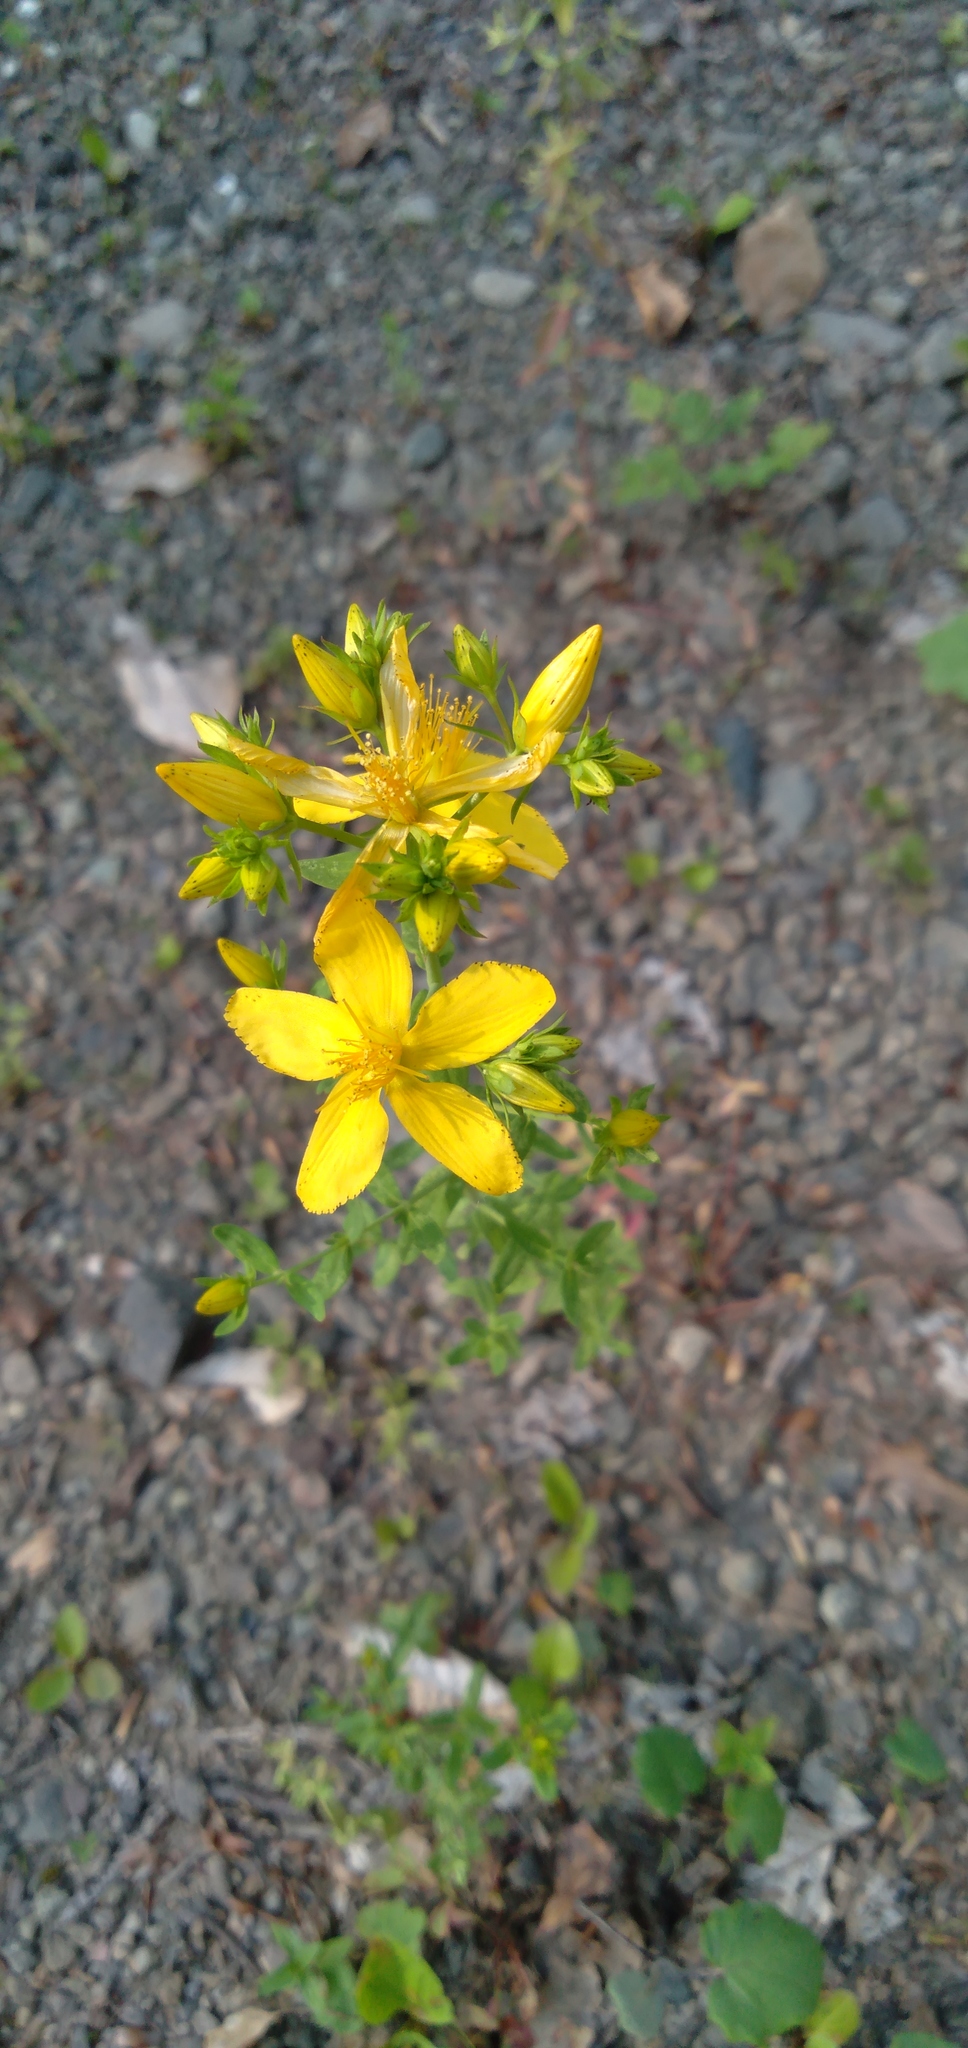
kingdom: Plantae
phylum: Tracheophyta
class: Magnoliopsida
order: Malpighiales
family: Hypericaceae
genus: Hypericum
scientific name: Hypericum perforatum
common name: Common st. johnswort
